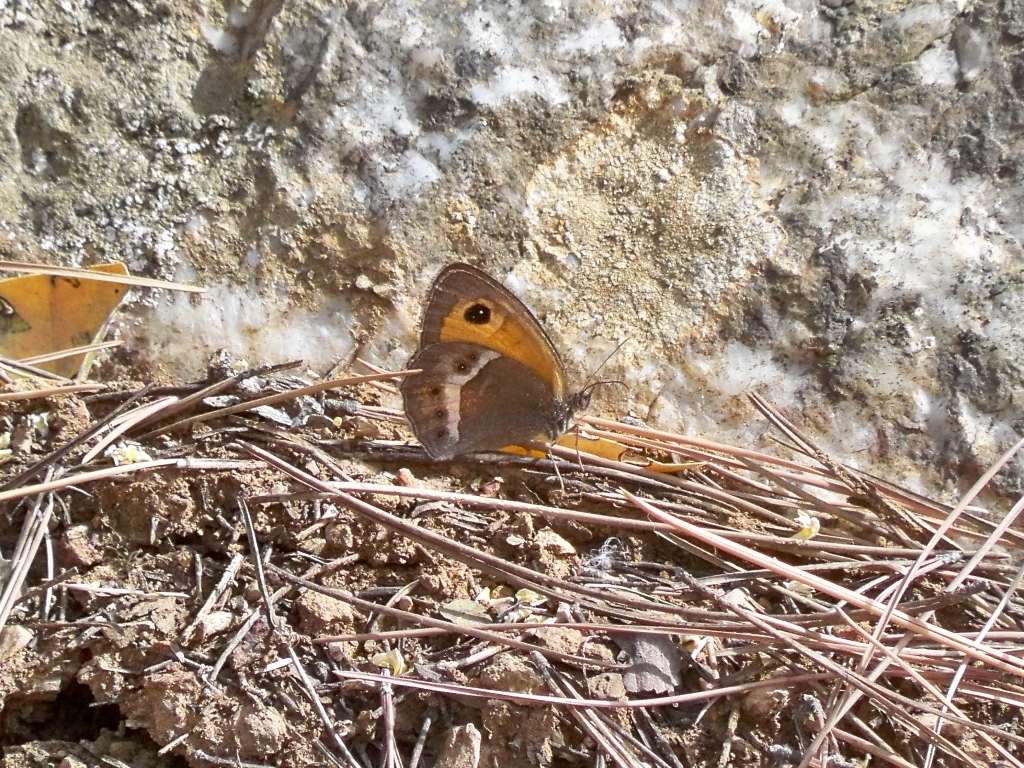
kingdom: Animalia
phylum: Arthropoda
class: Insecta
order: Lepidoptera
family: Nymphalidae
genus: Pyronia
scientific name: Pyronia bathseba
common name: Spanish gatekeeper
